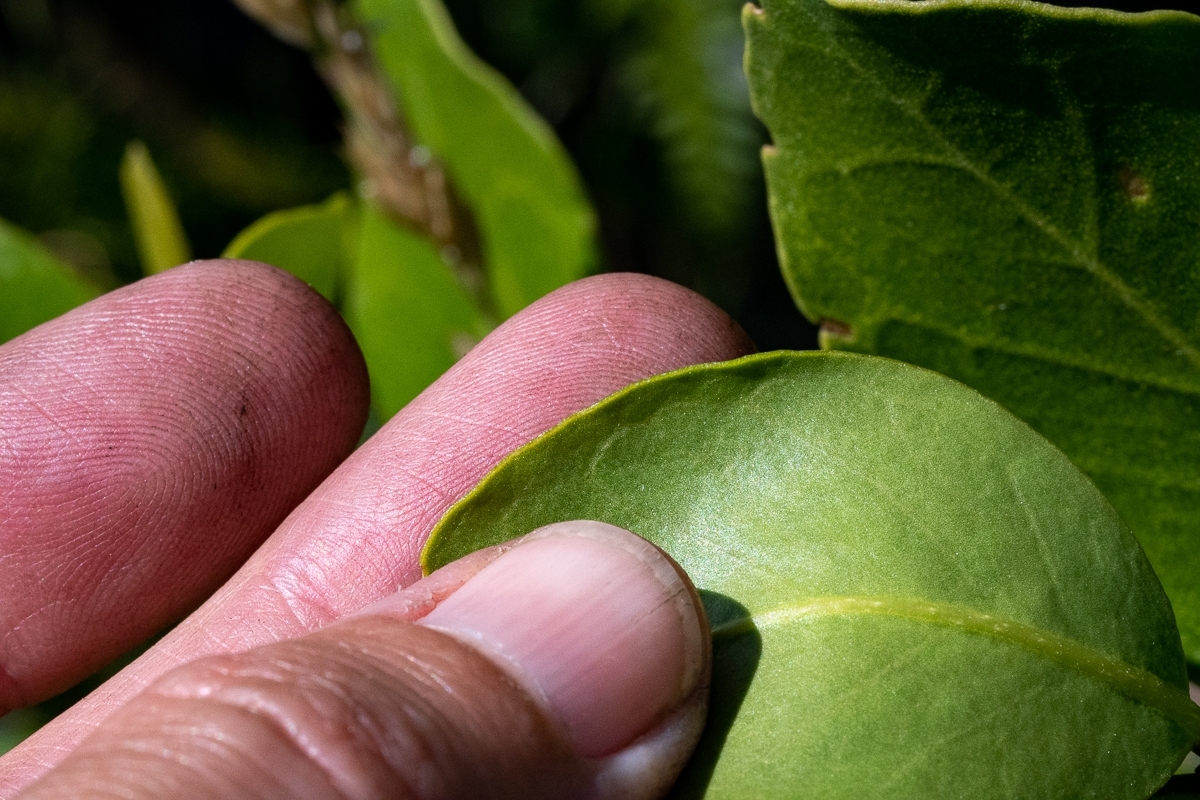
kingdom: Plantae
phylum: Tracheophyta
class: Magnoliopsida
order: Lamiales
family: Oleaceae
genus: Olea
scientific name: Olea capensis
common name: Black ironwood
